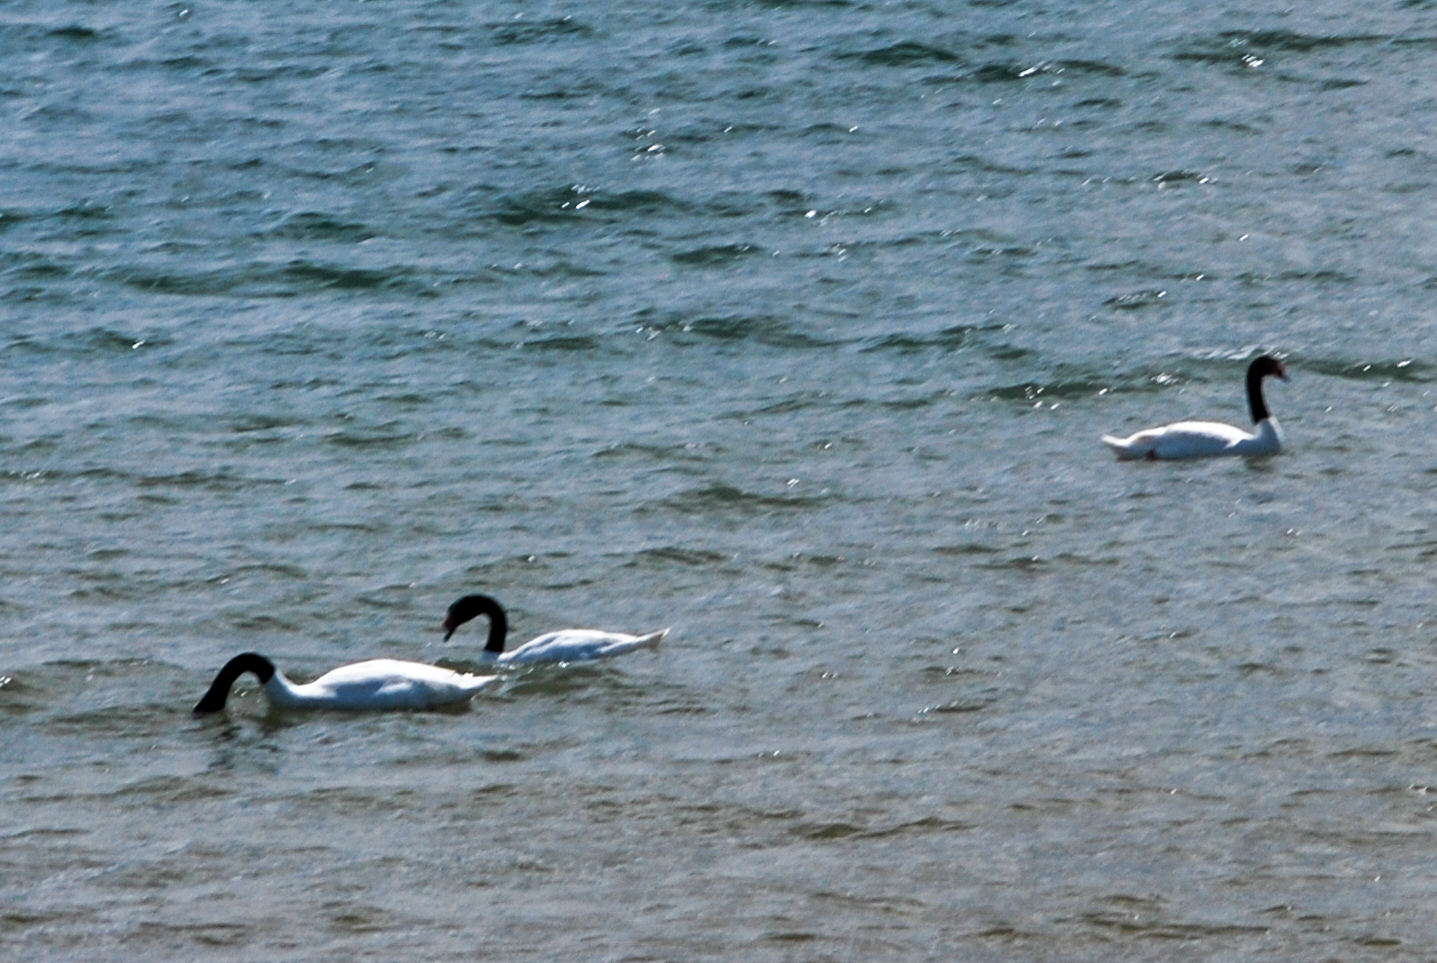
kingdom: Animalia
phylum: Chordata
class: Aves
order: Anseriformes
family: Anatidae
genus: Cygnus
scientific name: Cygnus melancoryphus
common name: Black-necked swan
